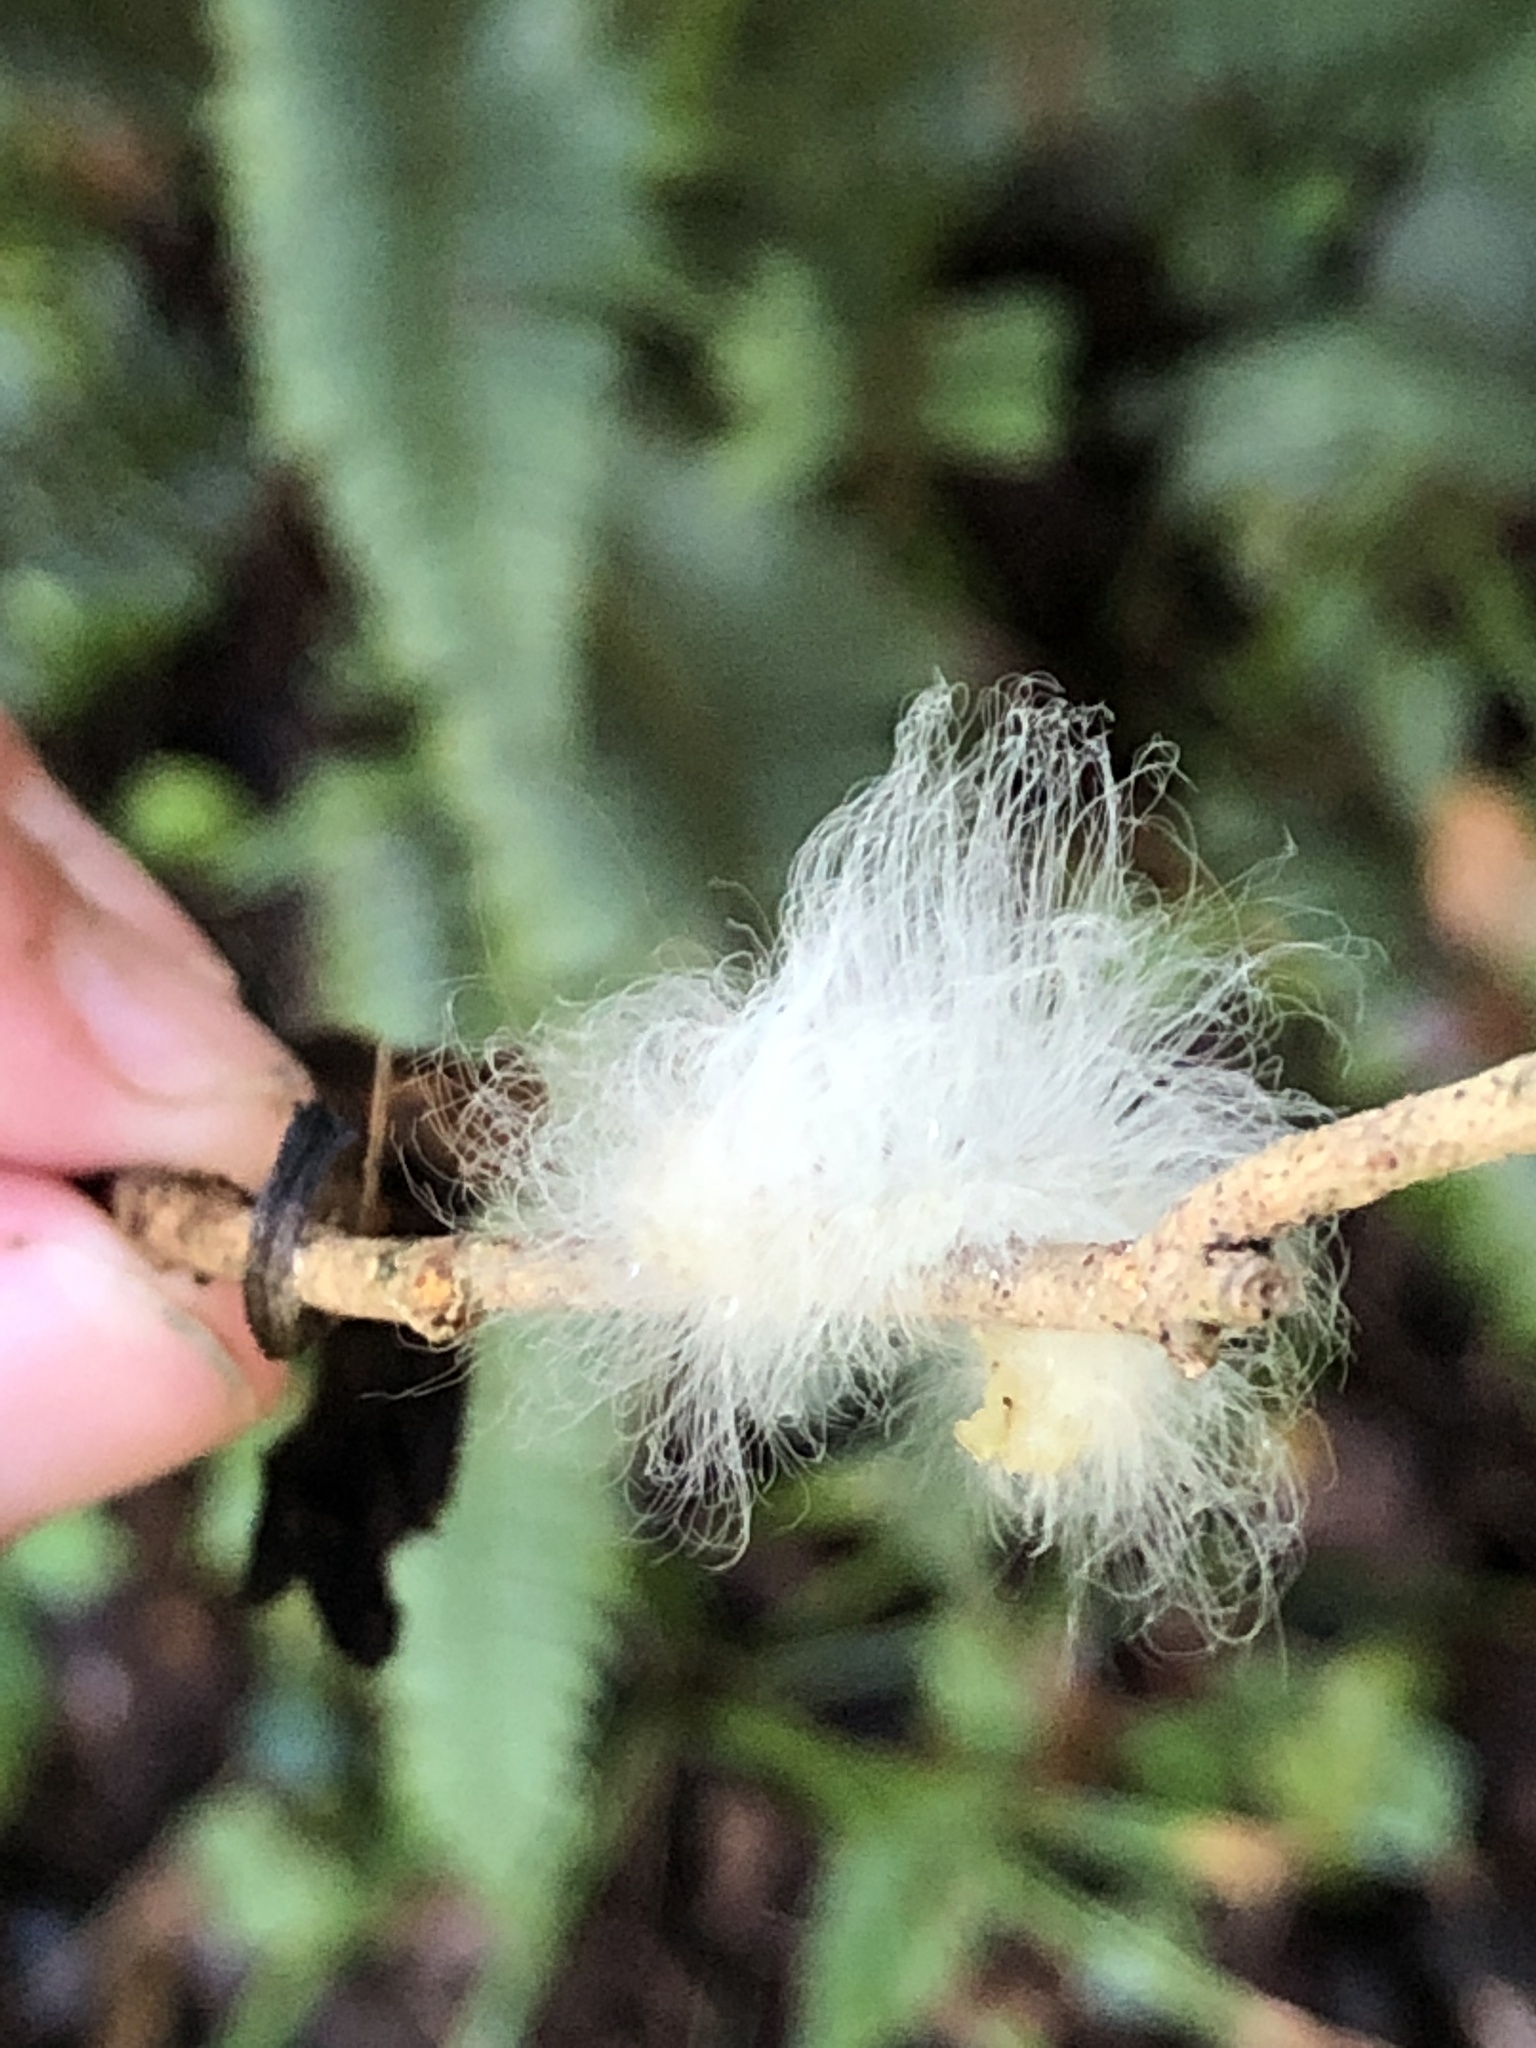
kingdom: Animalia
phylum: Arthropoda
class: Insecta
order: Lepidoptera
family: Megalopygidae
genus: Megalopyge
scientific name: Megalopyge crispata
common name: Black-waved flannel moth
